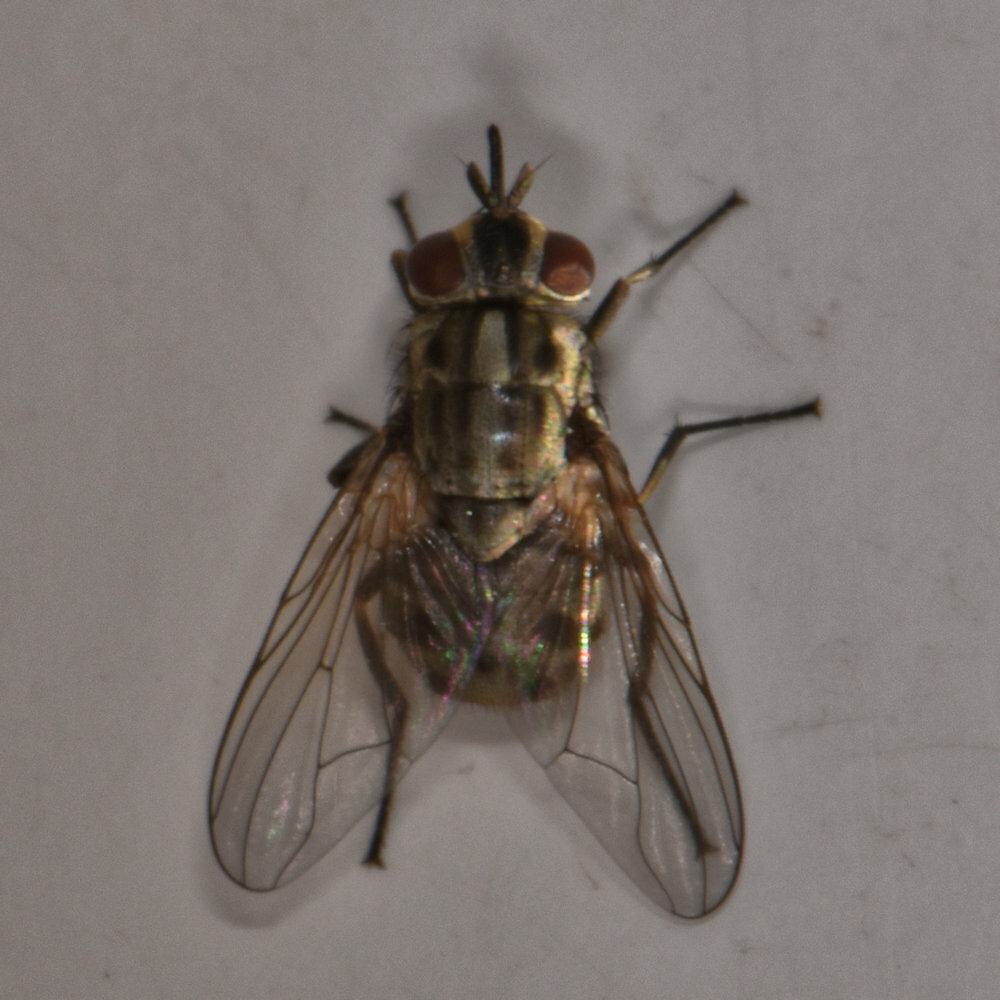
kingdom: Animalia
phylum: Arthropoda
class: Insecta
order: Diptera
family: Muscidae
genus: Stomoxys
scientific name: Stomoxys calcitrans
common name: Stable fly
